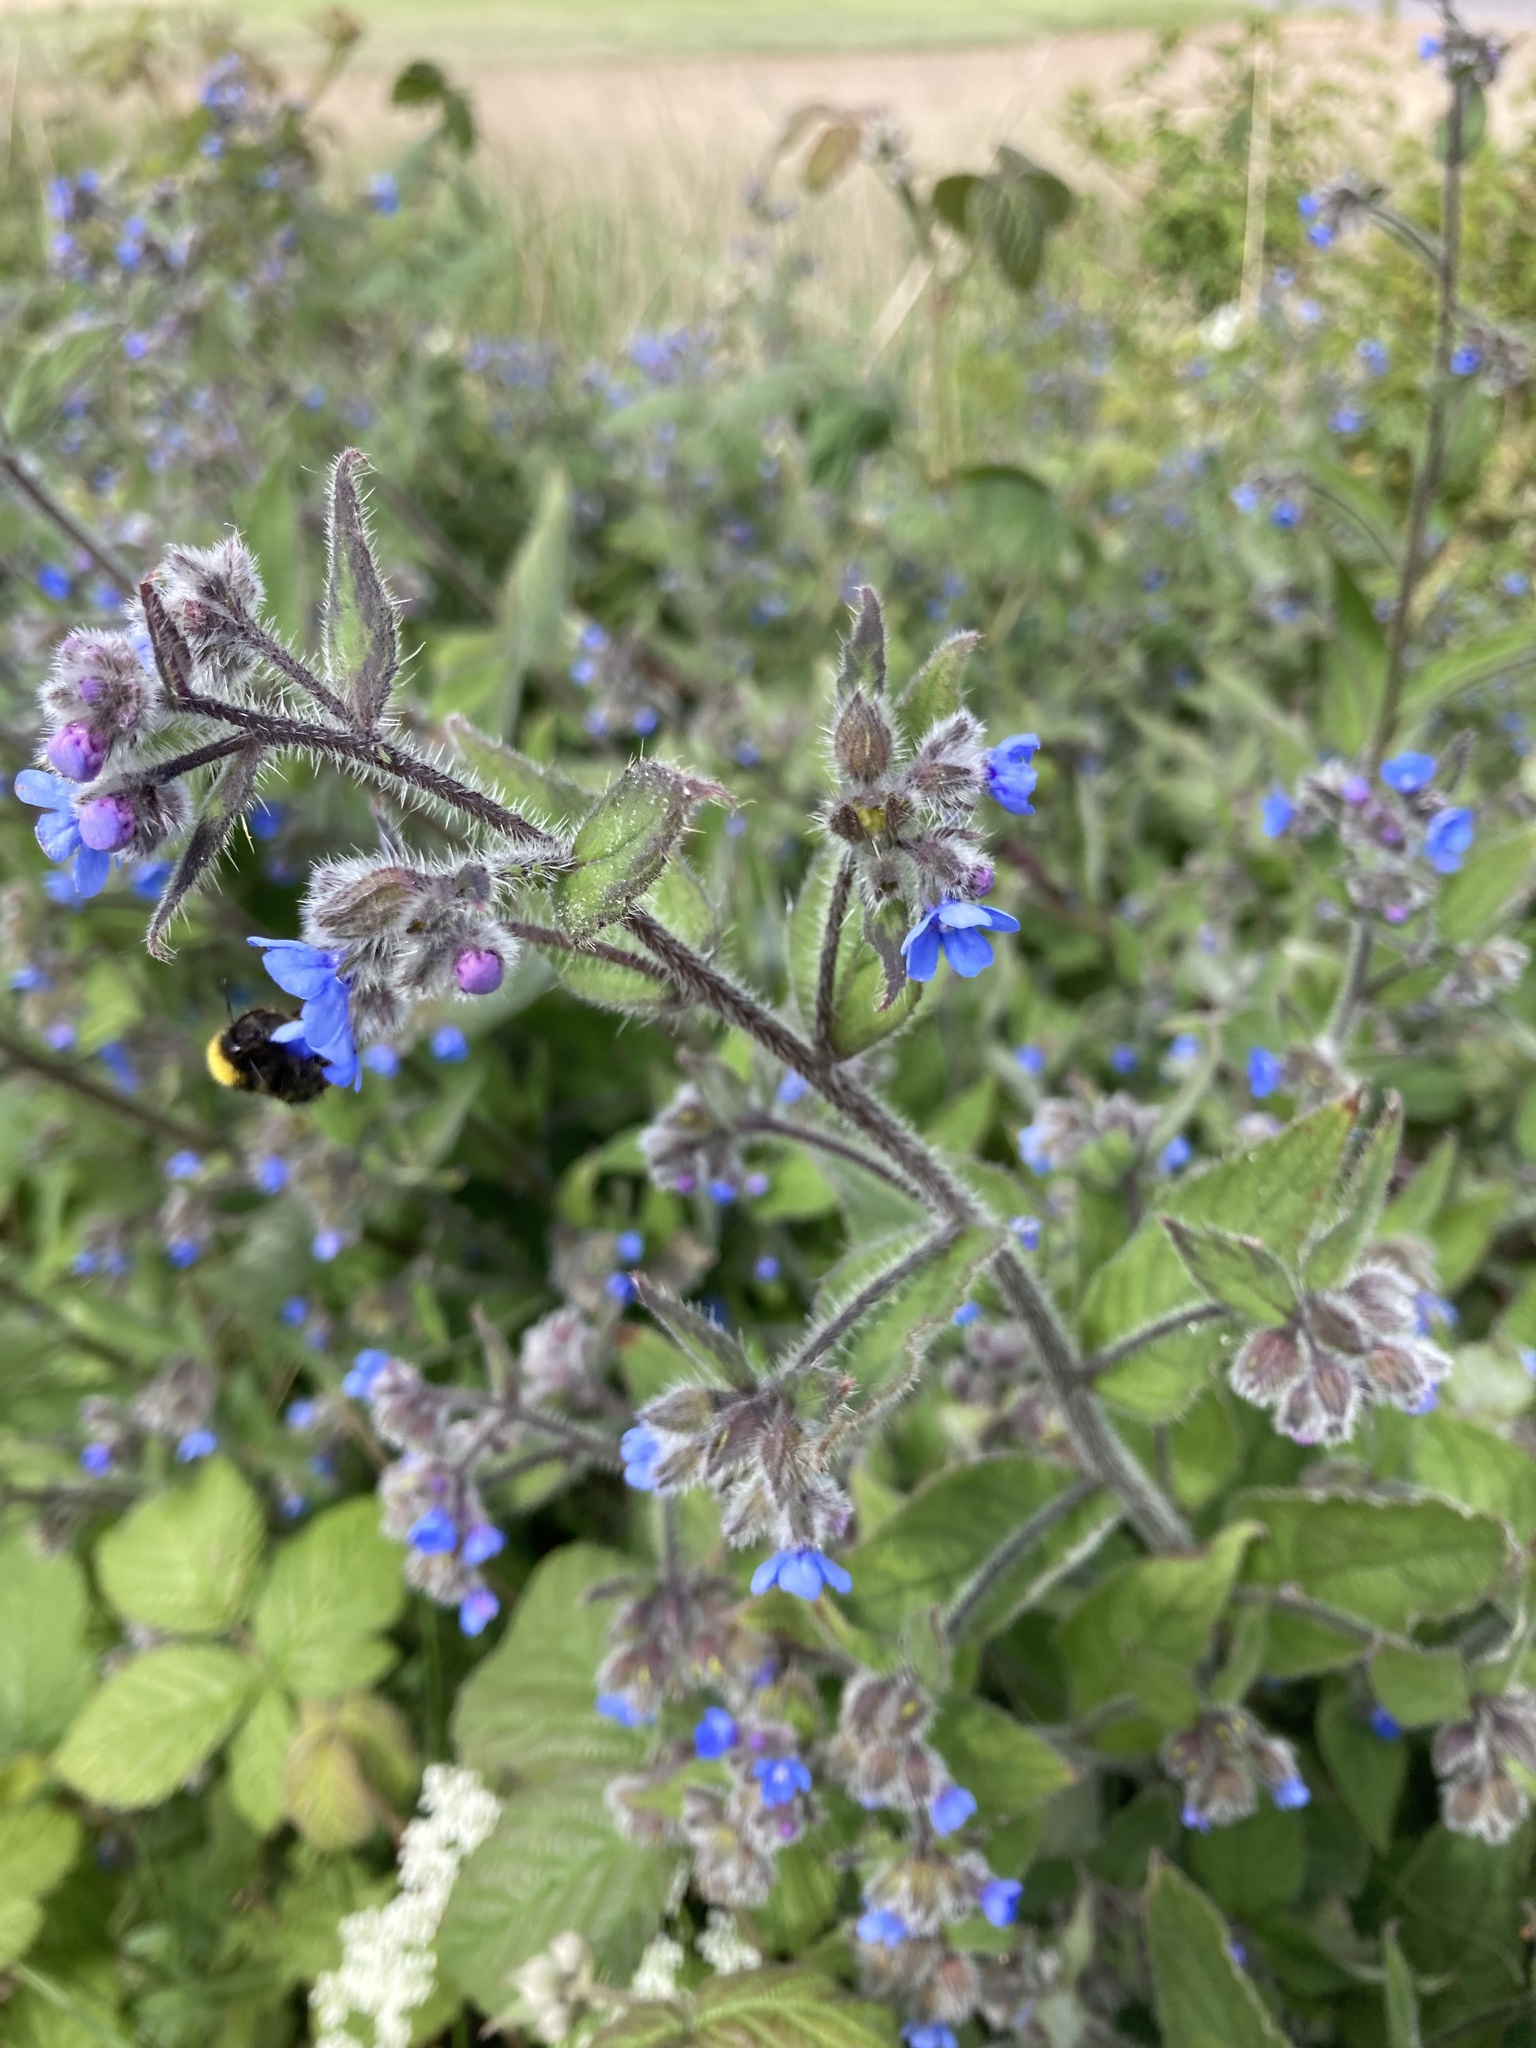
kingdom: Plantae
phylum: Tracheophyta
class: Magnoliopsida
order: Boraginales
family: Boraginaceae
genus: Pentaglottis
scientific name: Pentaglottis sempervirens
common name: Green alkanet
